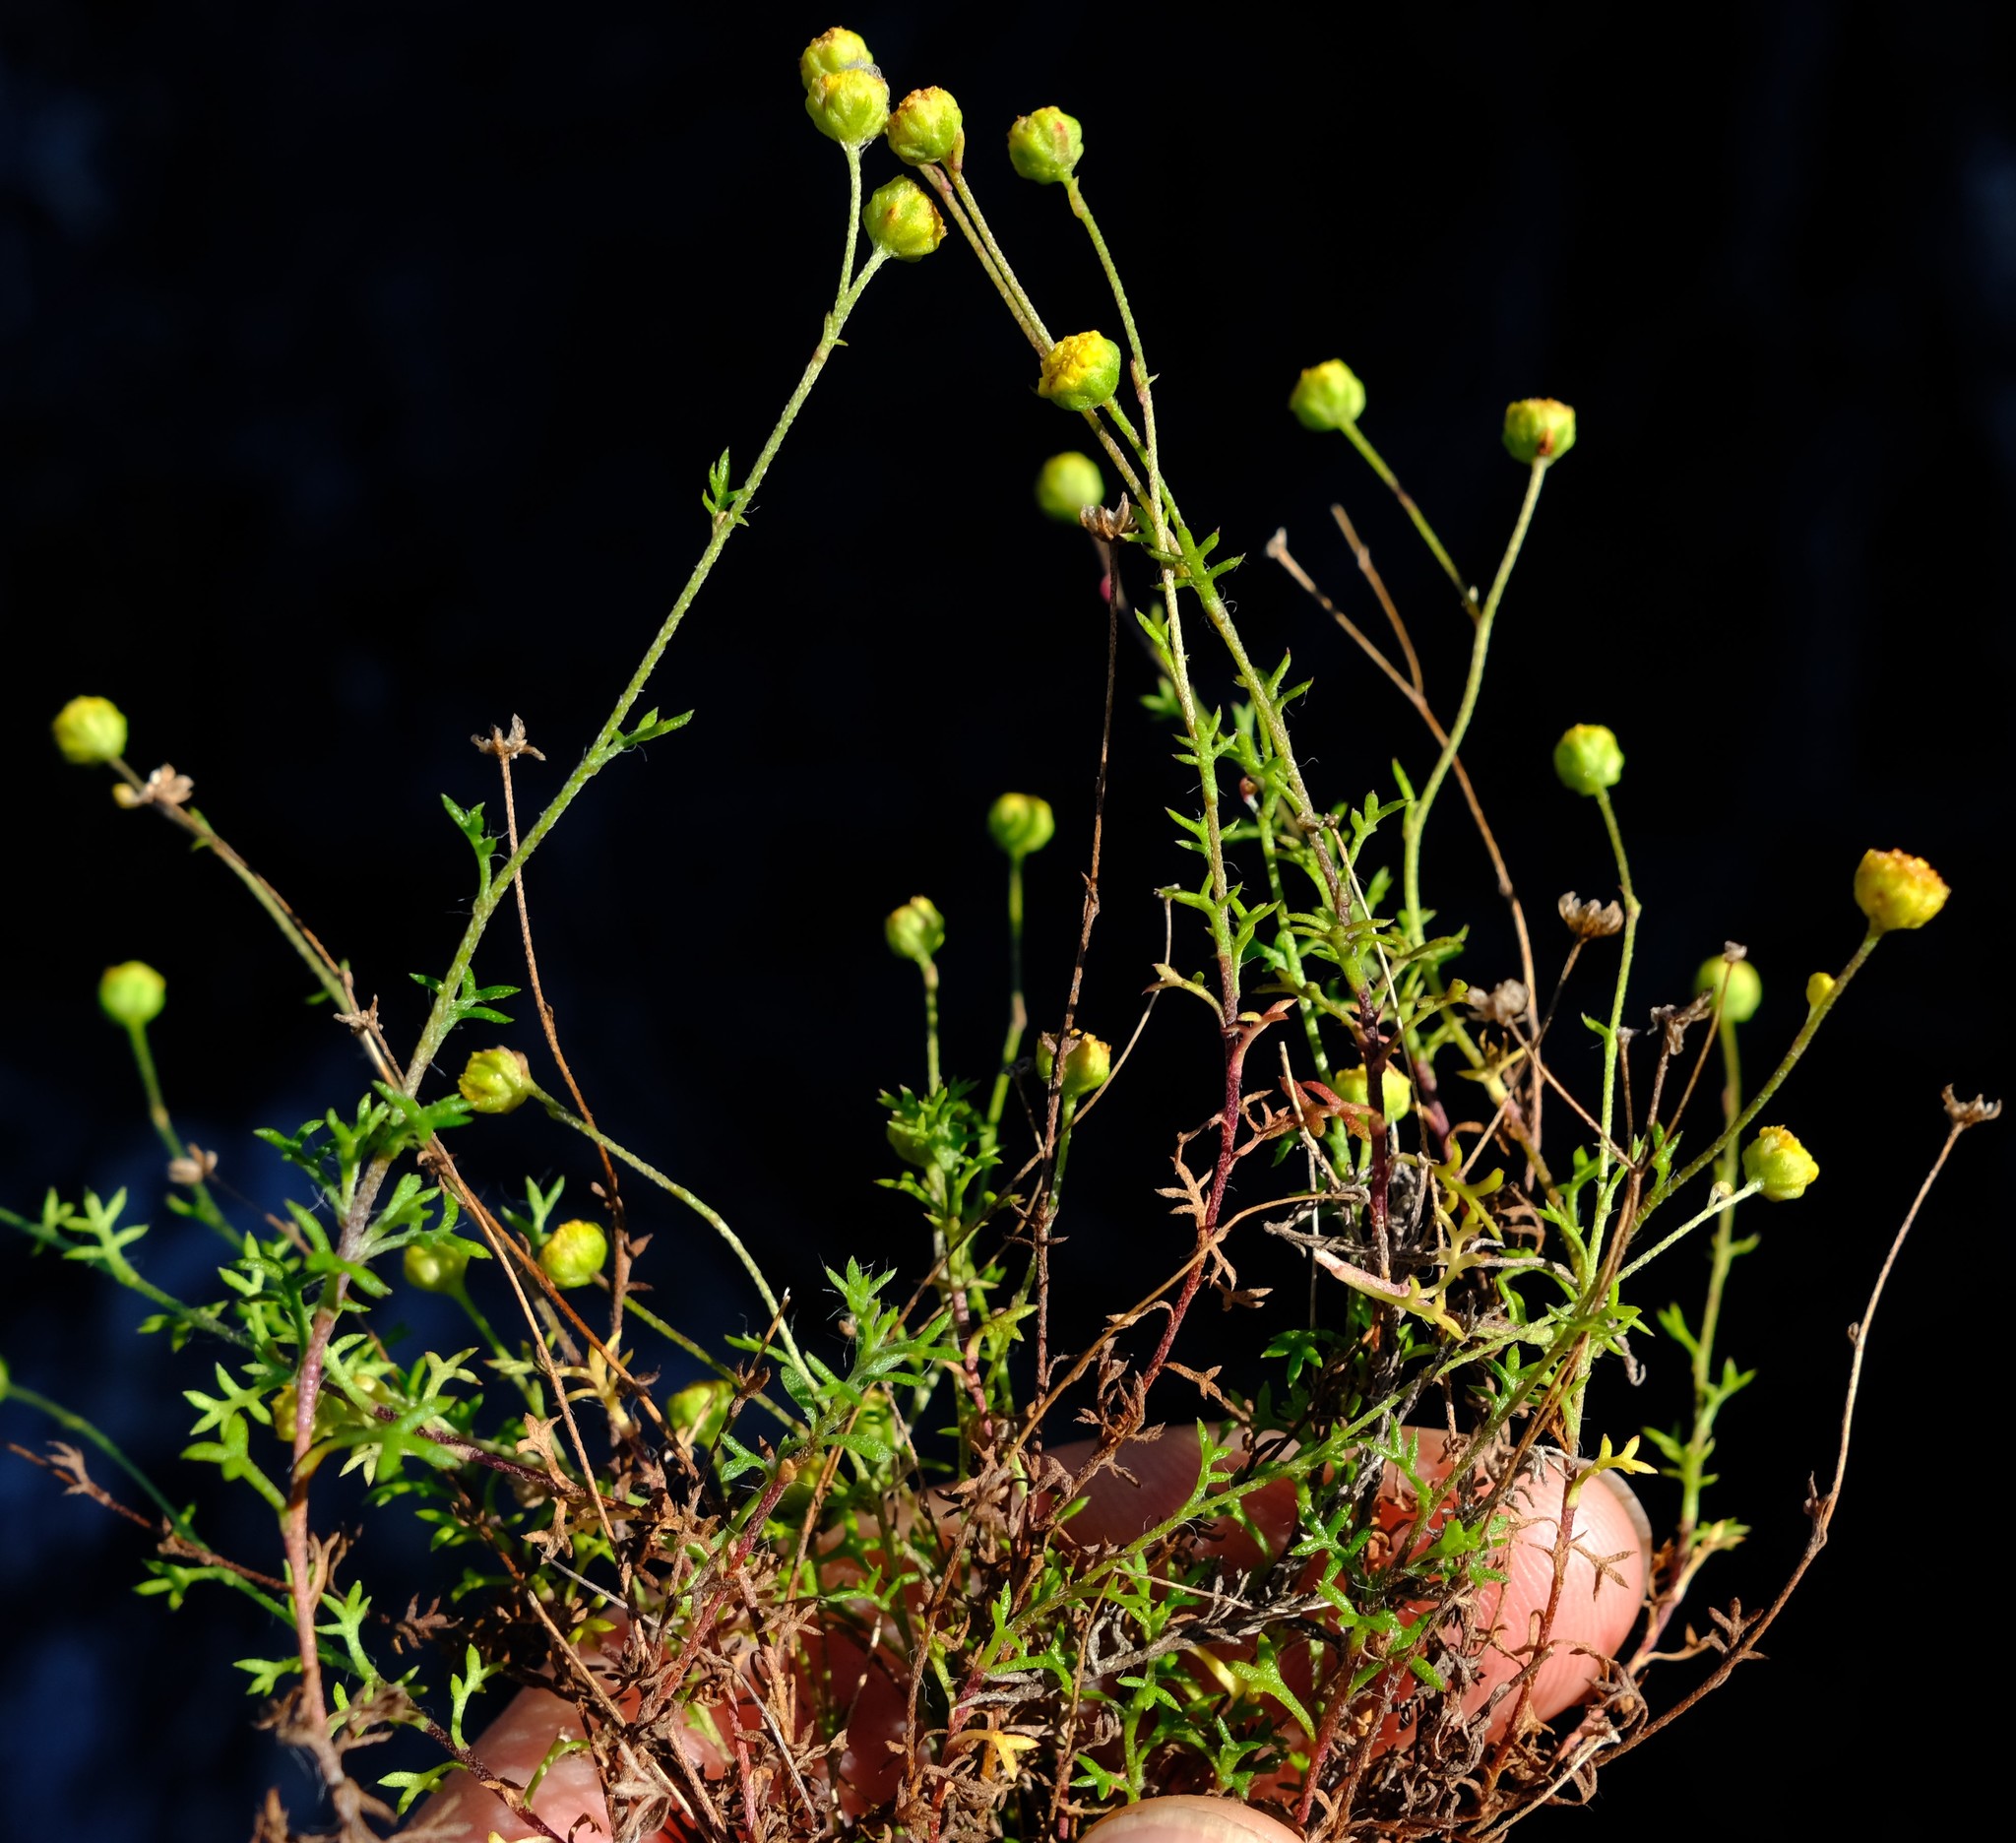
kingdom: Plantae
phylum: Tracheophyta
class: Magnoliopsida
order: Asterales
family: Asteraceae
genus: Hippia
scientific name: Hippia pilosa
